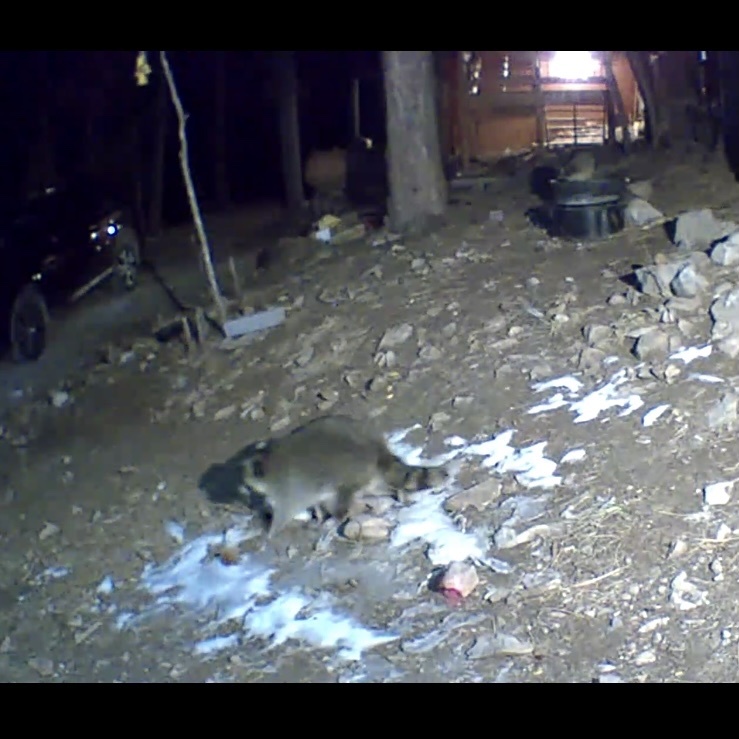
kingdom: Animalia
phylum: Chordata
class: Mammalia
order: Carnivora
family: Procyonidae
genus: Procyon
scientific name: Procyon lotor
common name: Raccoon
